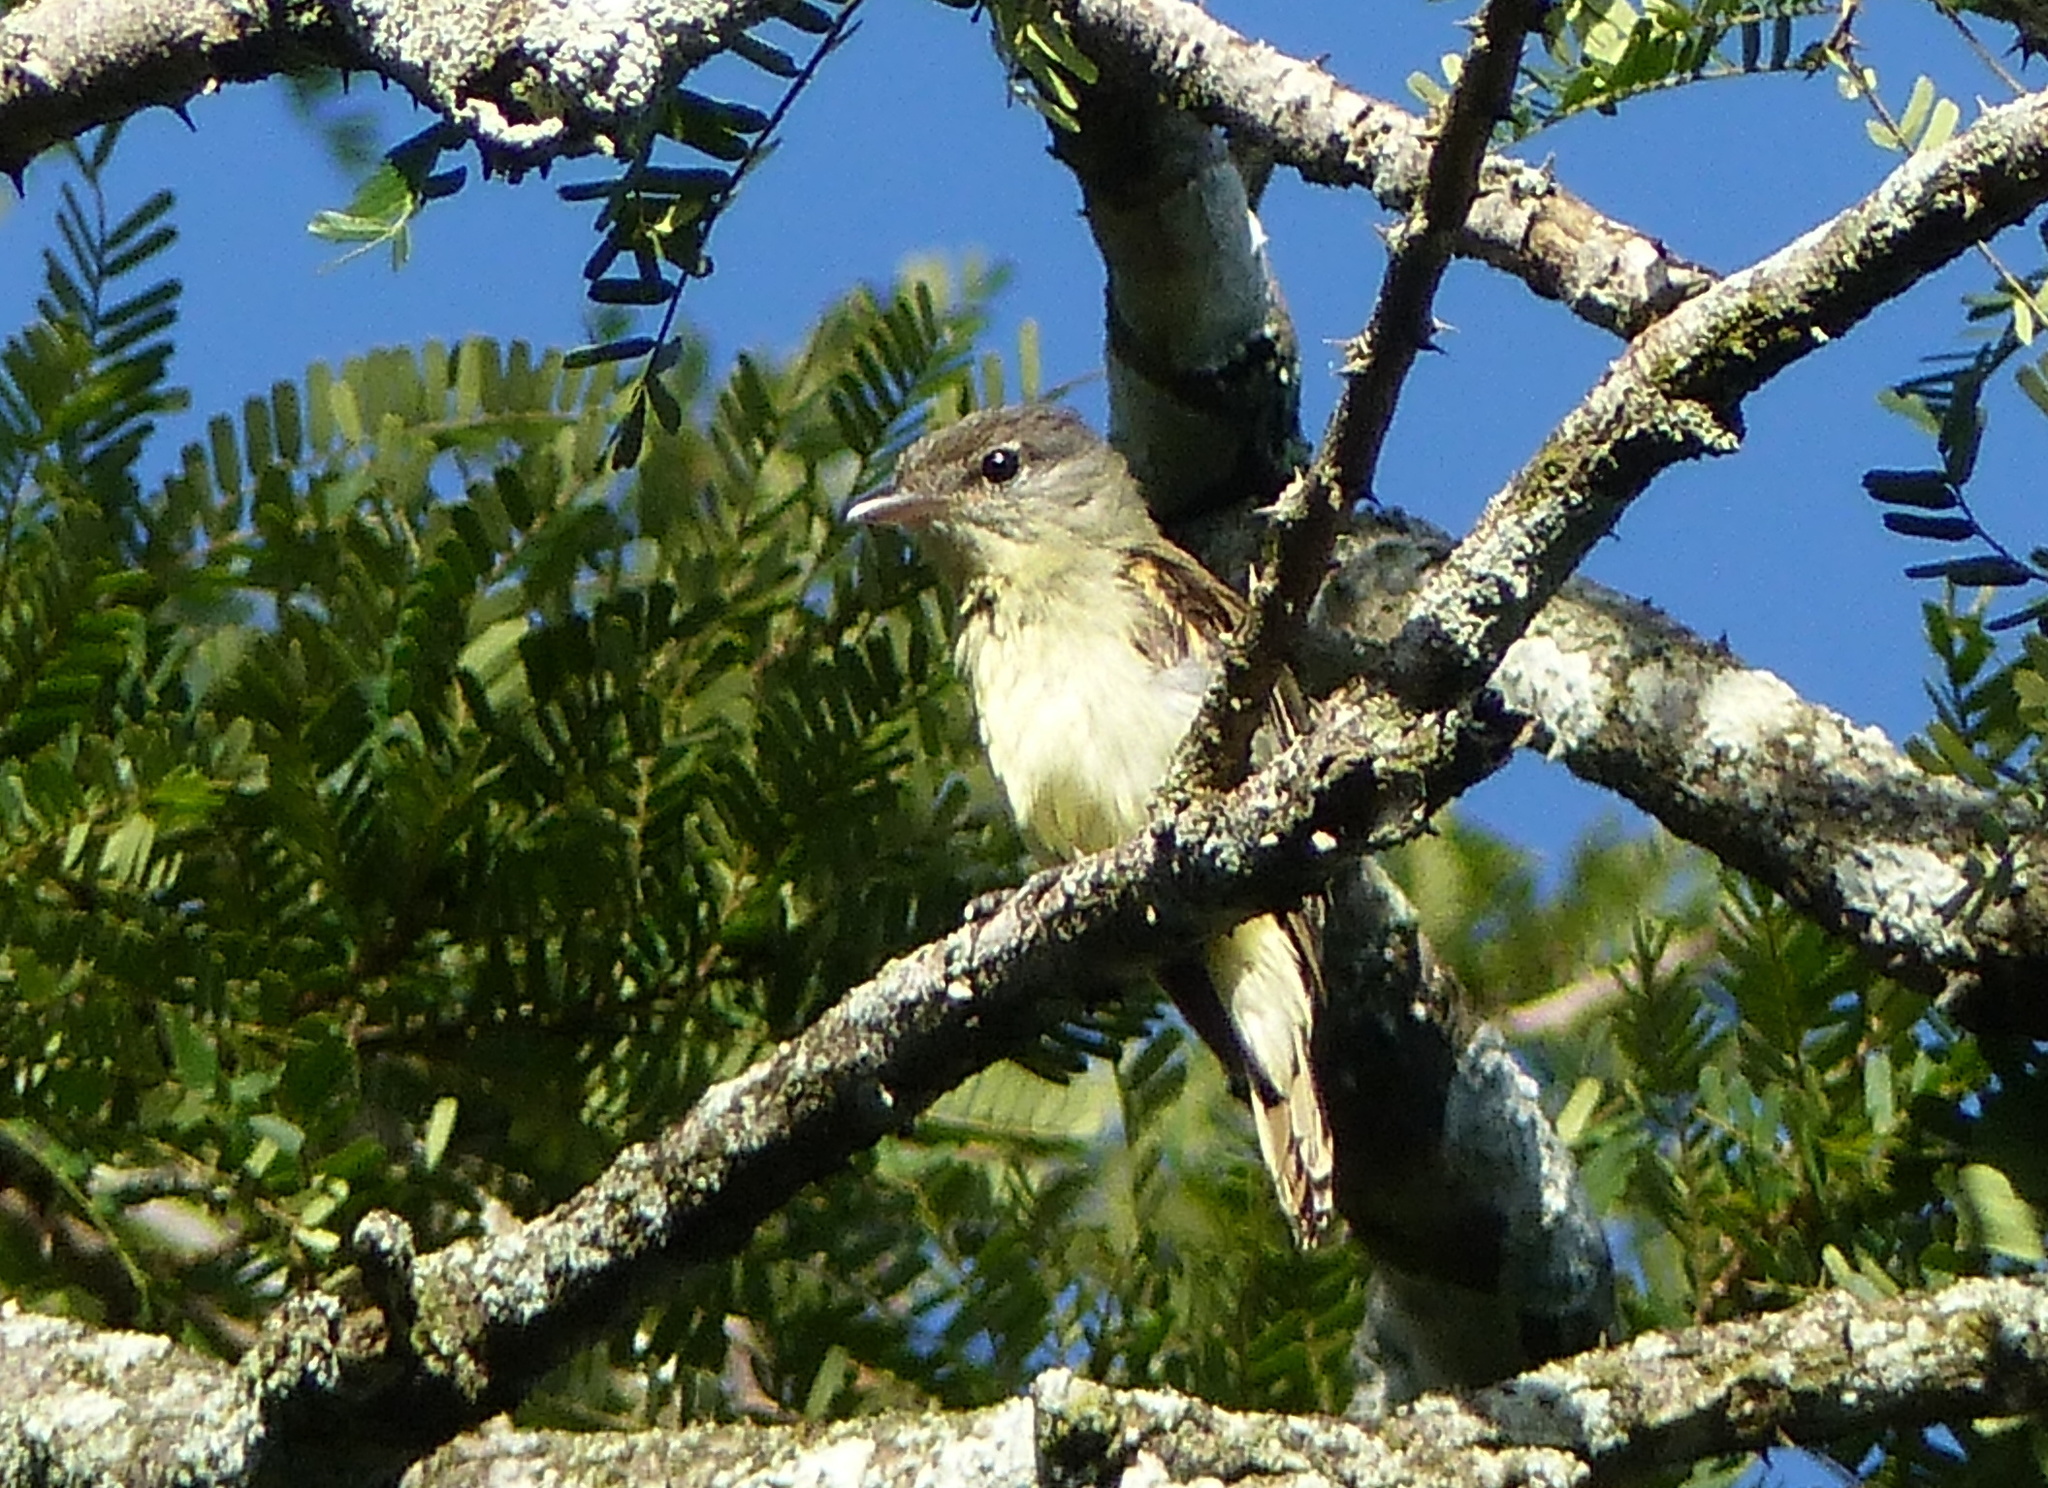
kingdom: Animalia
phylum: Chordata
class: Aves
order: Passeriformes
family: Cotingidae
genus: Pachyramphus
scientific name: Pachyramphus polychopterus
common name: White-winged becard
